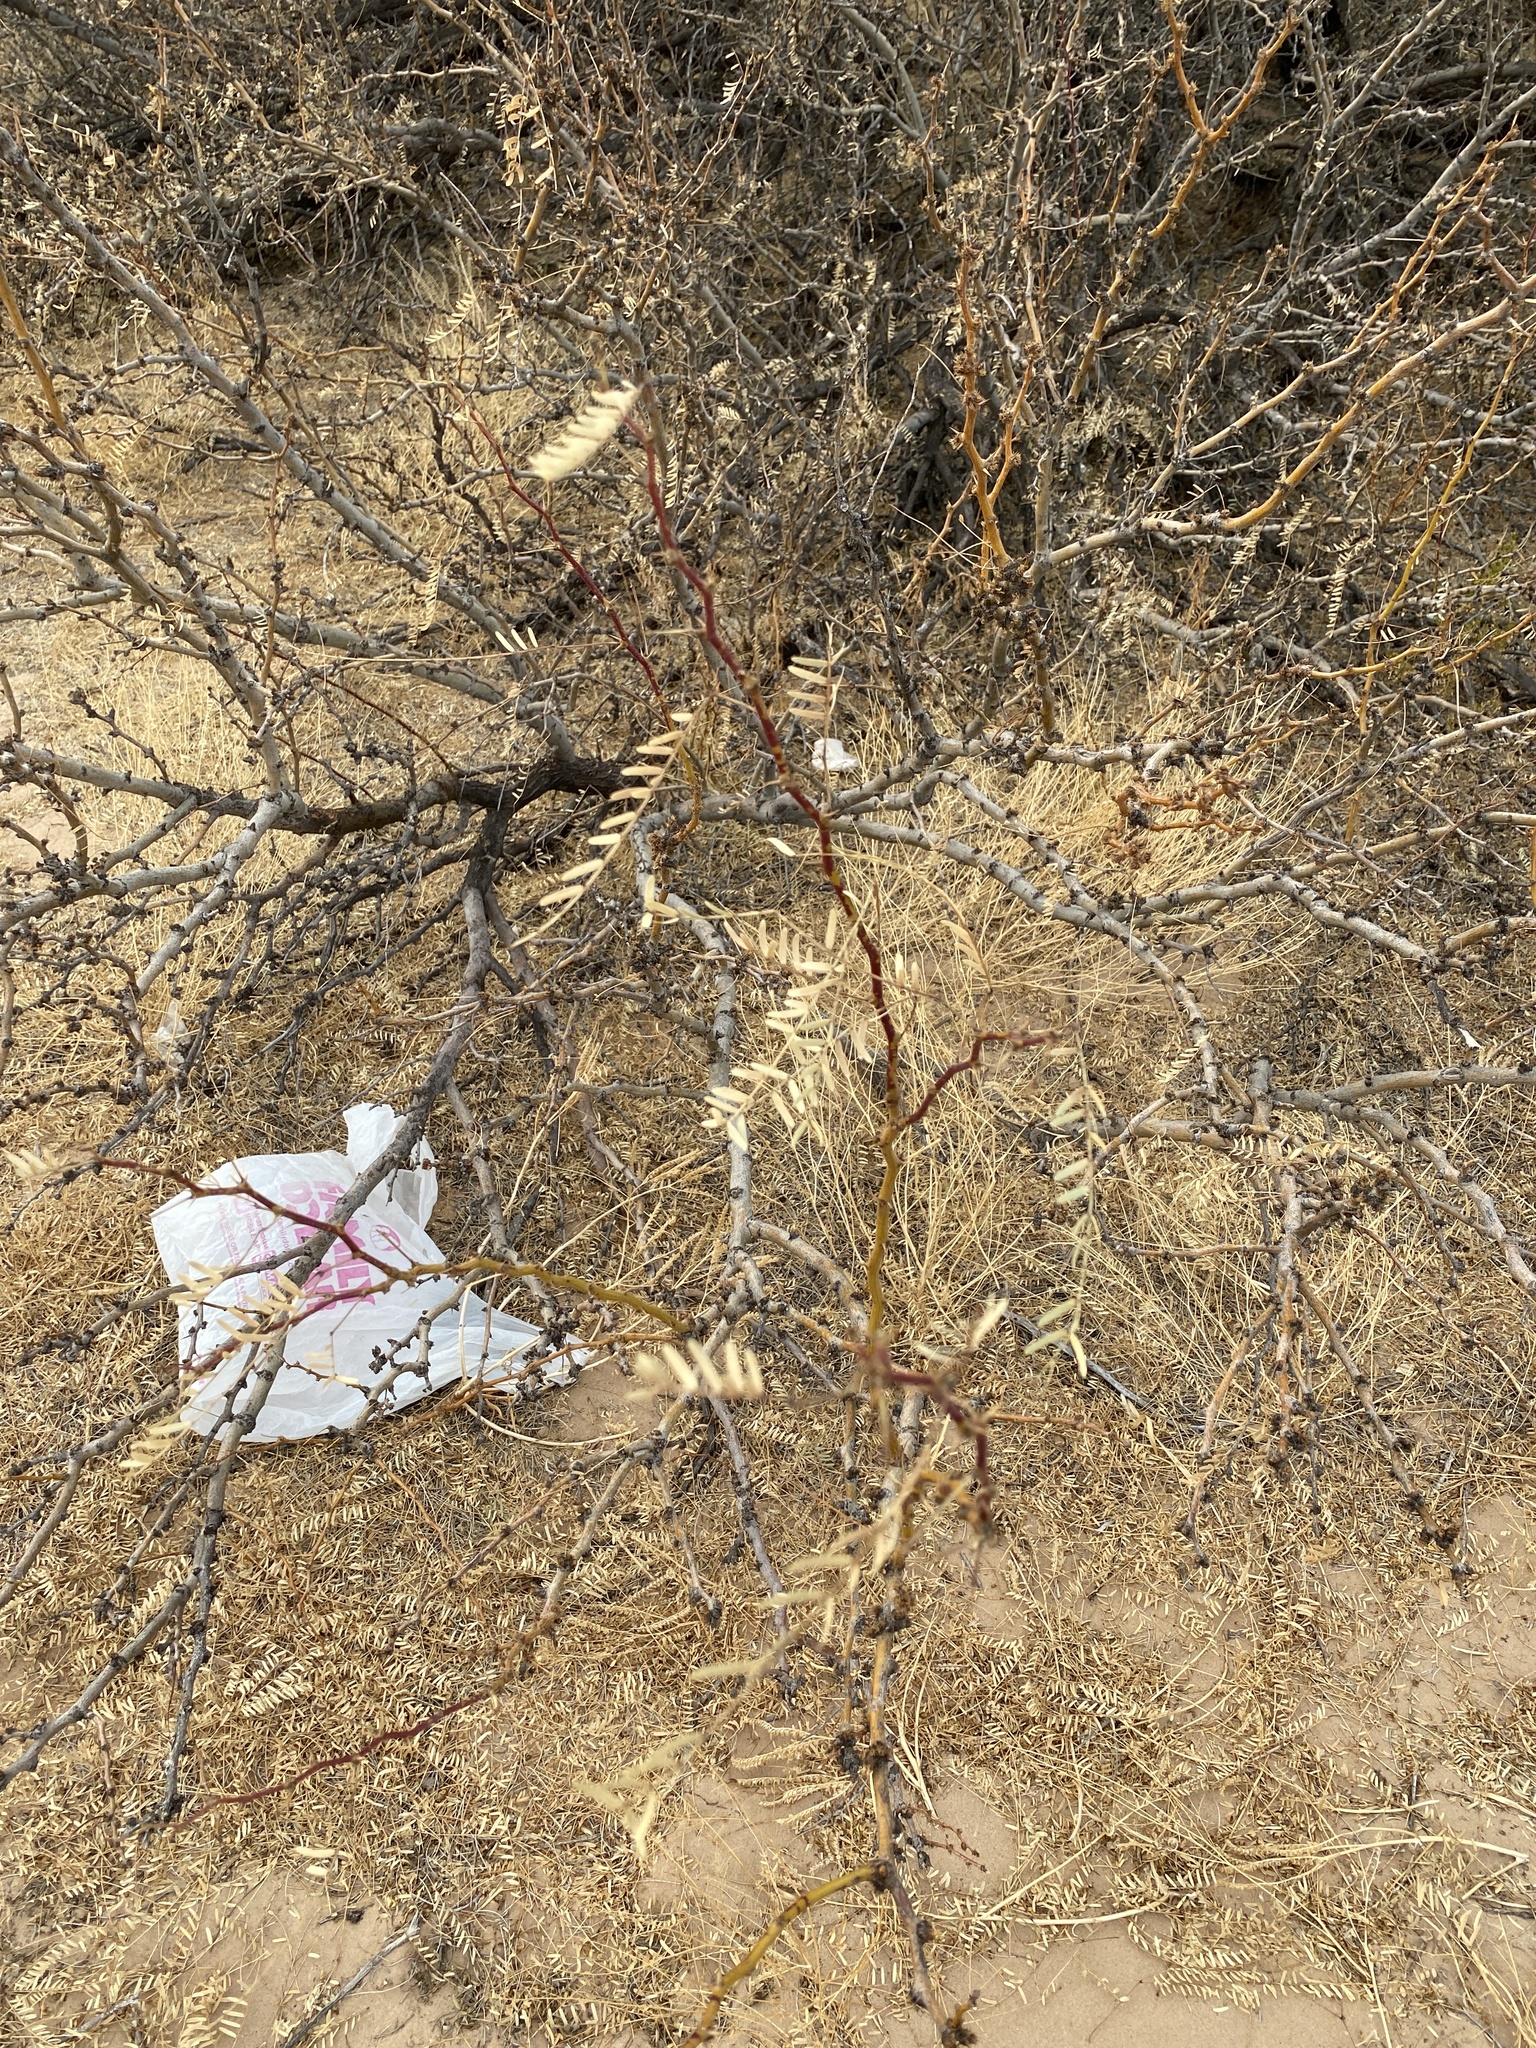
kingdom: Plantae
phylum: Tracheophyta
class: Magnoliopsida
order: Fabales
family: Fabaceae
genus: Prosopis
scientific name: Prosopis glandulosa
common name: Honey mesquite
